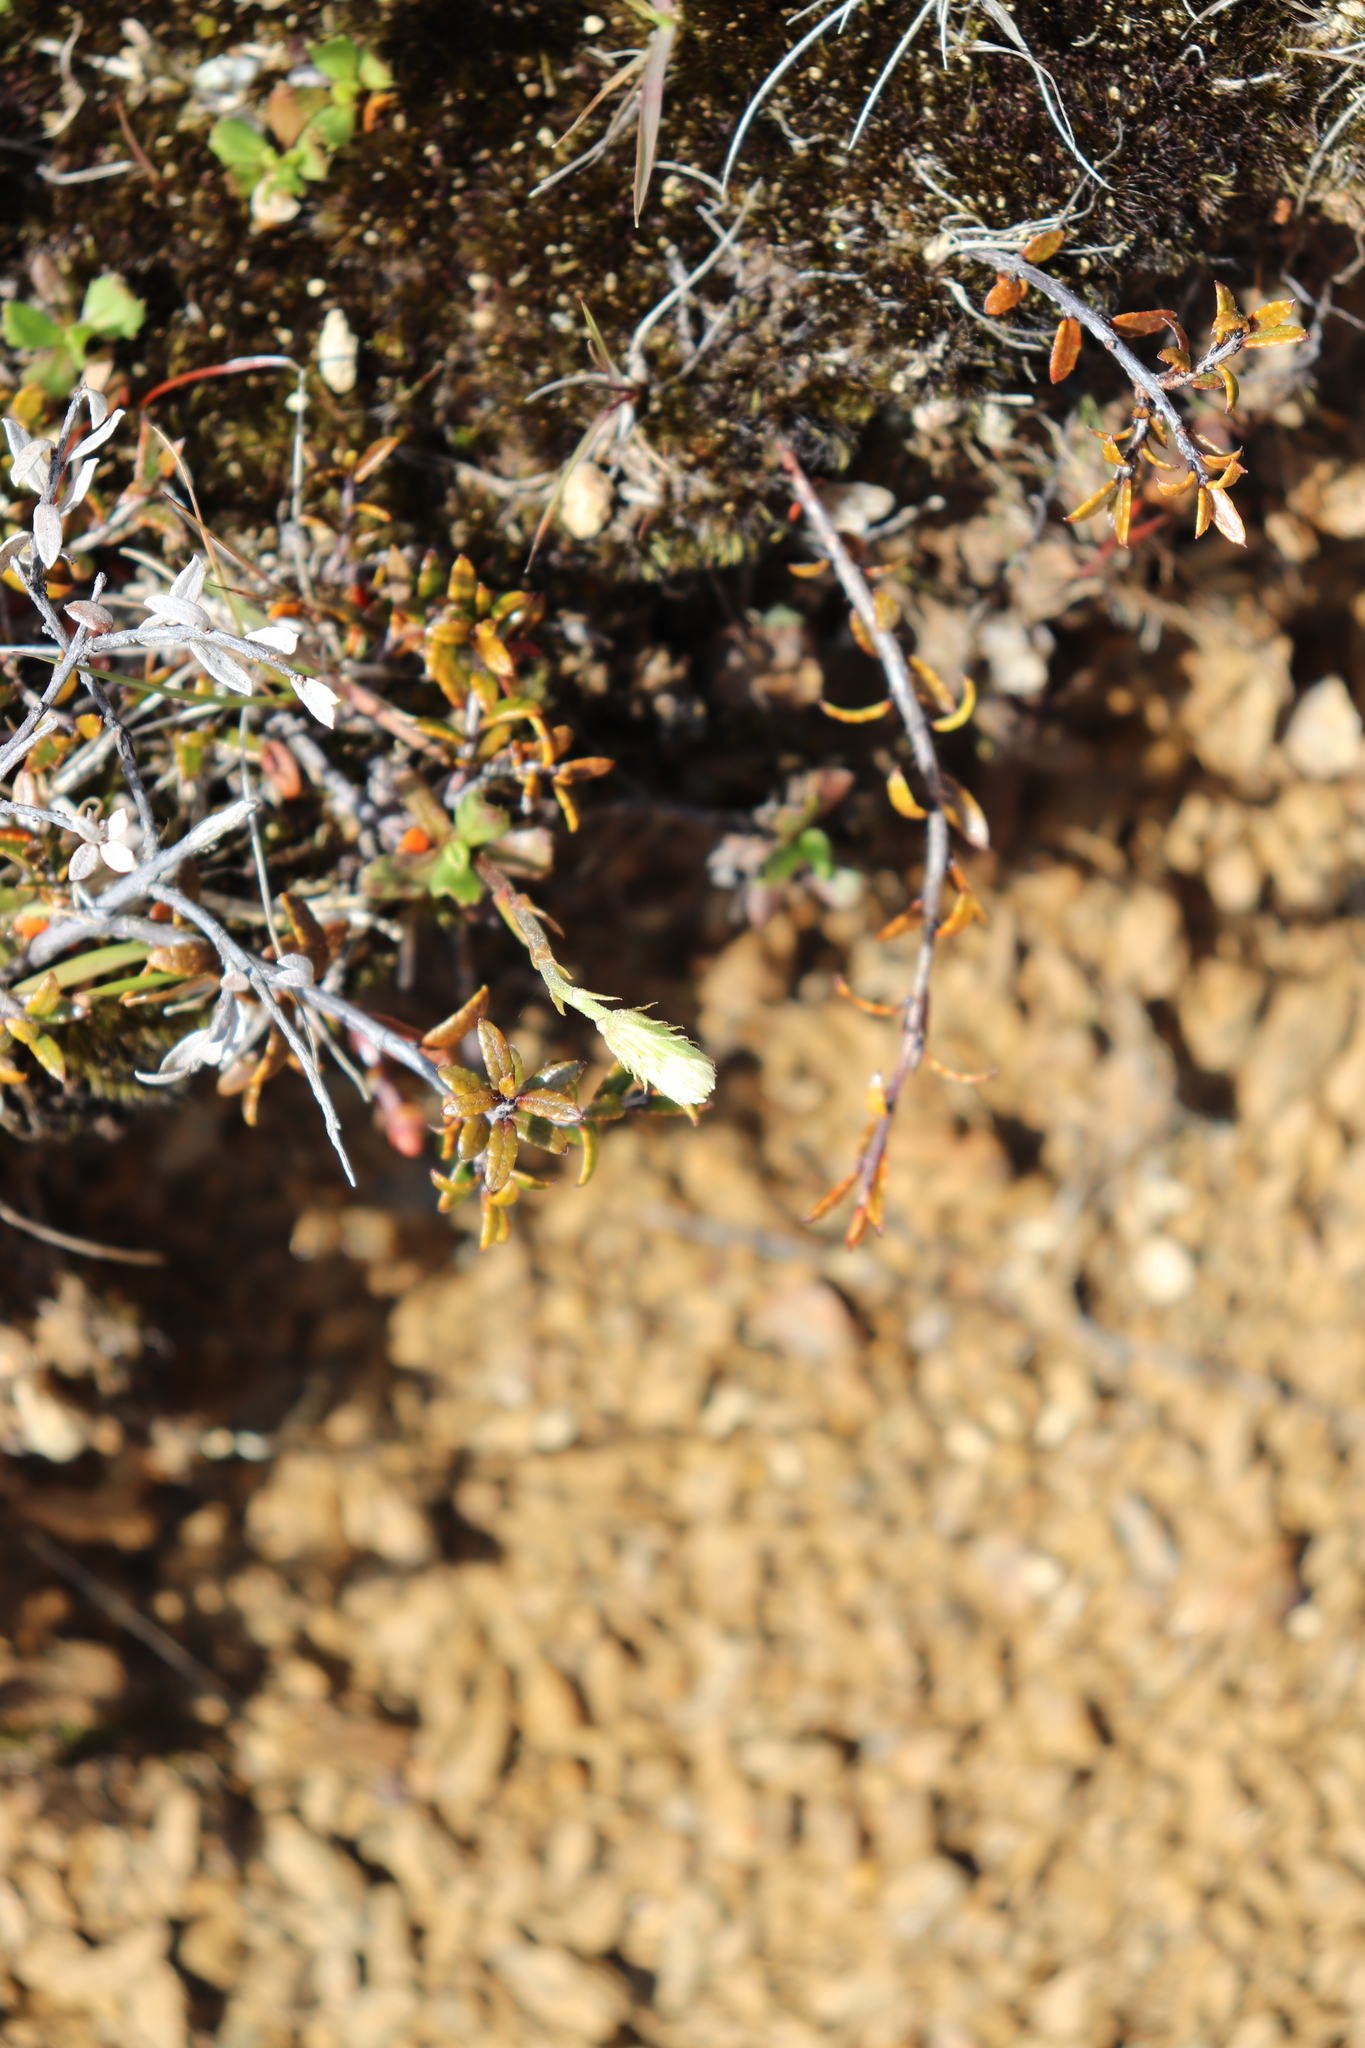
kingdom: Plantae
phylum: Tracheophyta
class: Magnoliopsida
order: Asterales
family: Asteraceae
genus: Celmisia
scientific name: Celmisia glandulosa
